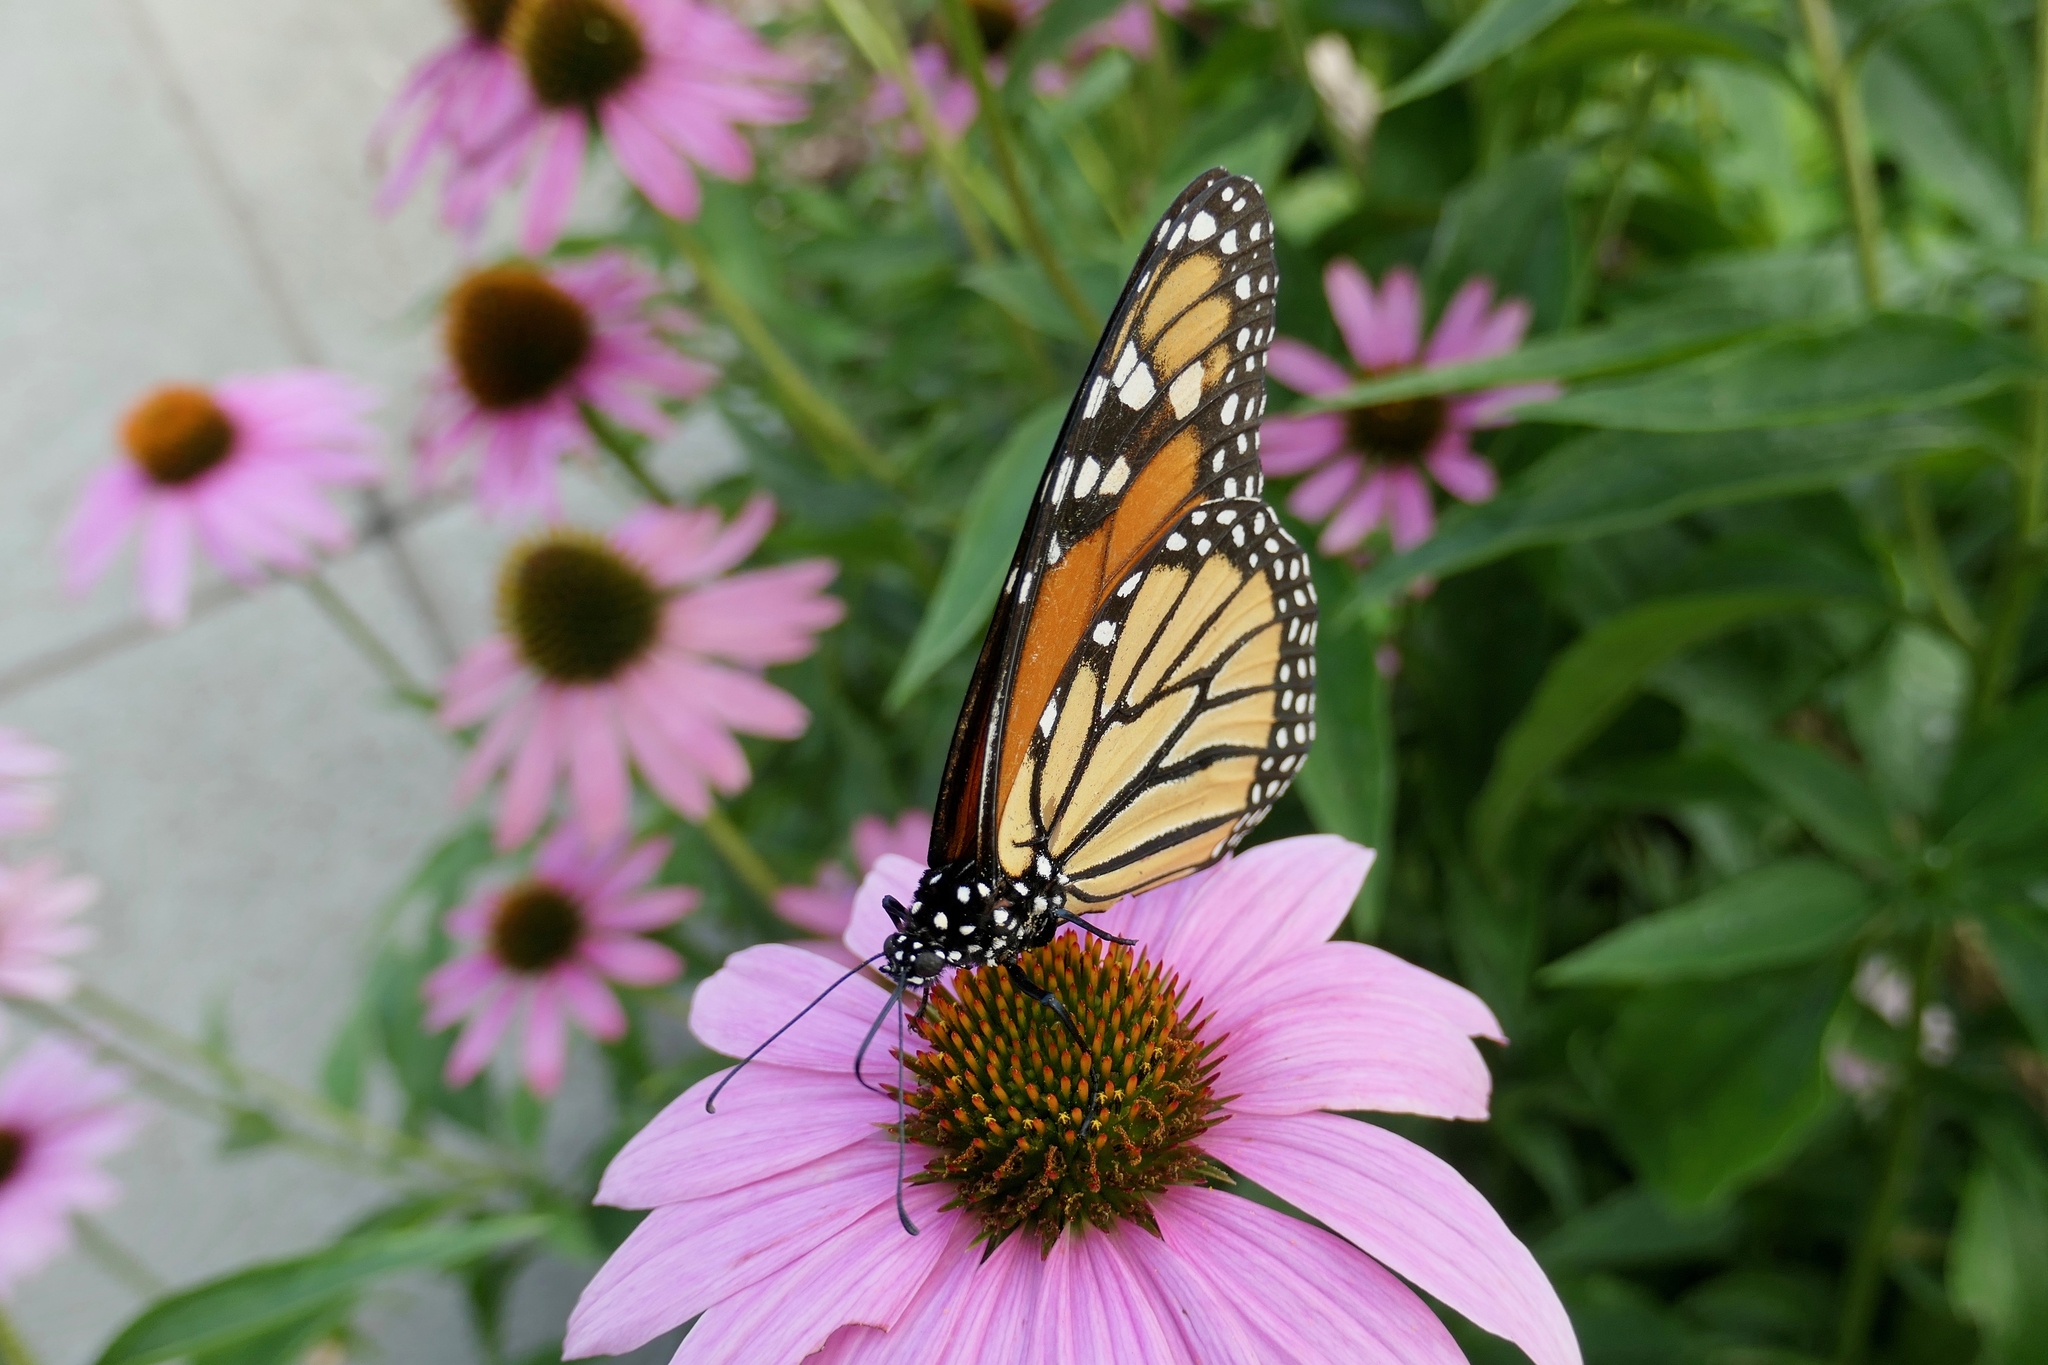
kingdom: Animalia
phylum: Arthropoda
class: Insecta
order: Lepidoptera
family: Nymphalidae
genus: Danaus
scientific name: Danaus plexippus
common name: Monarch
